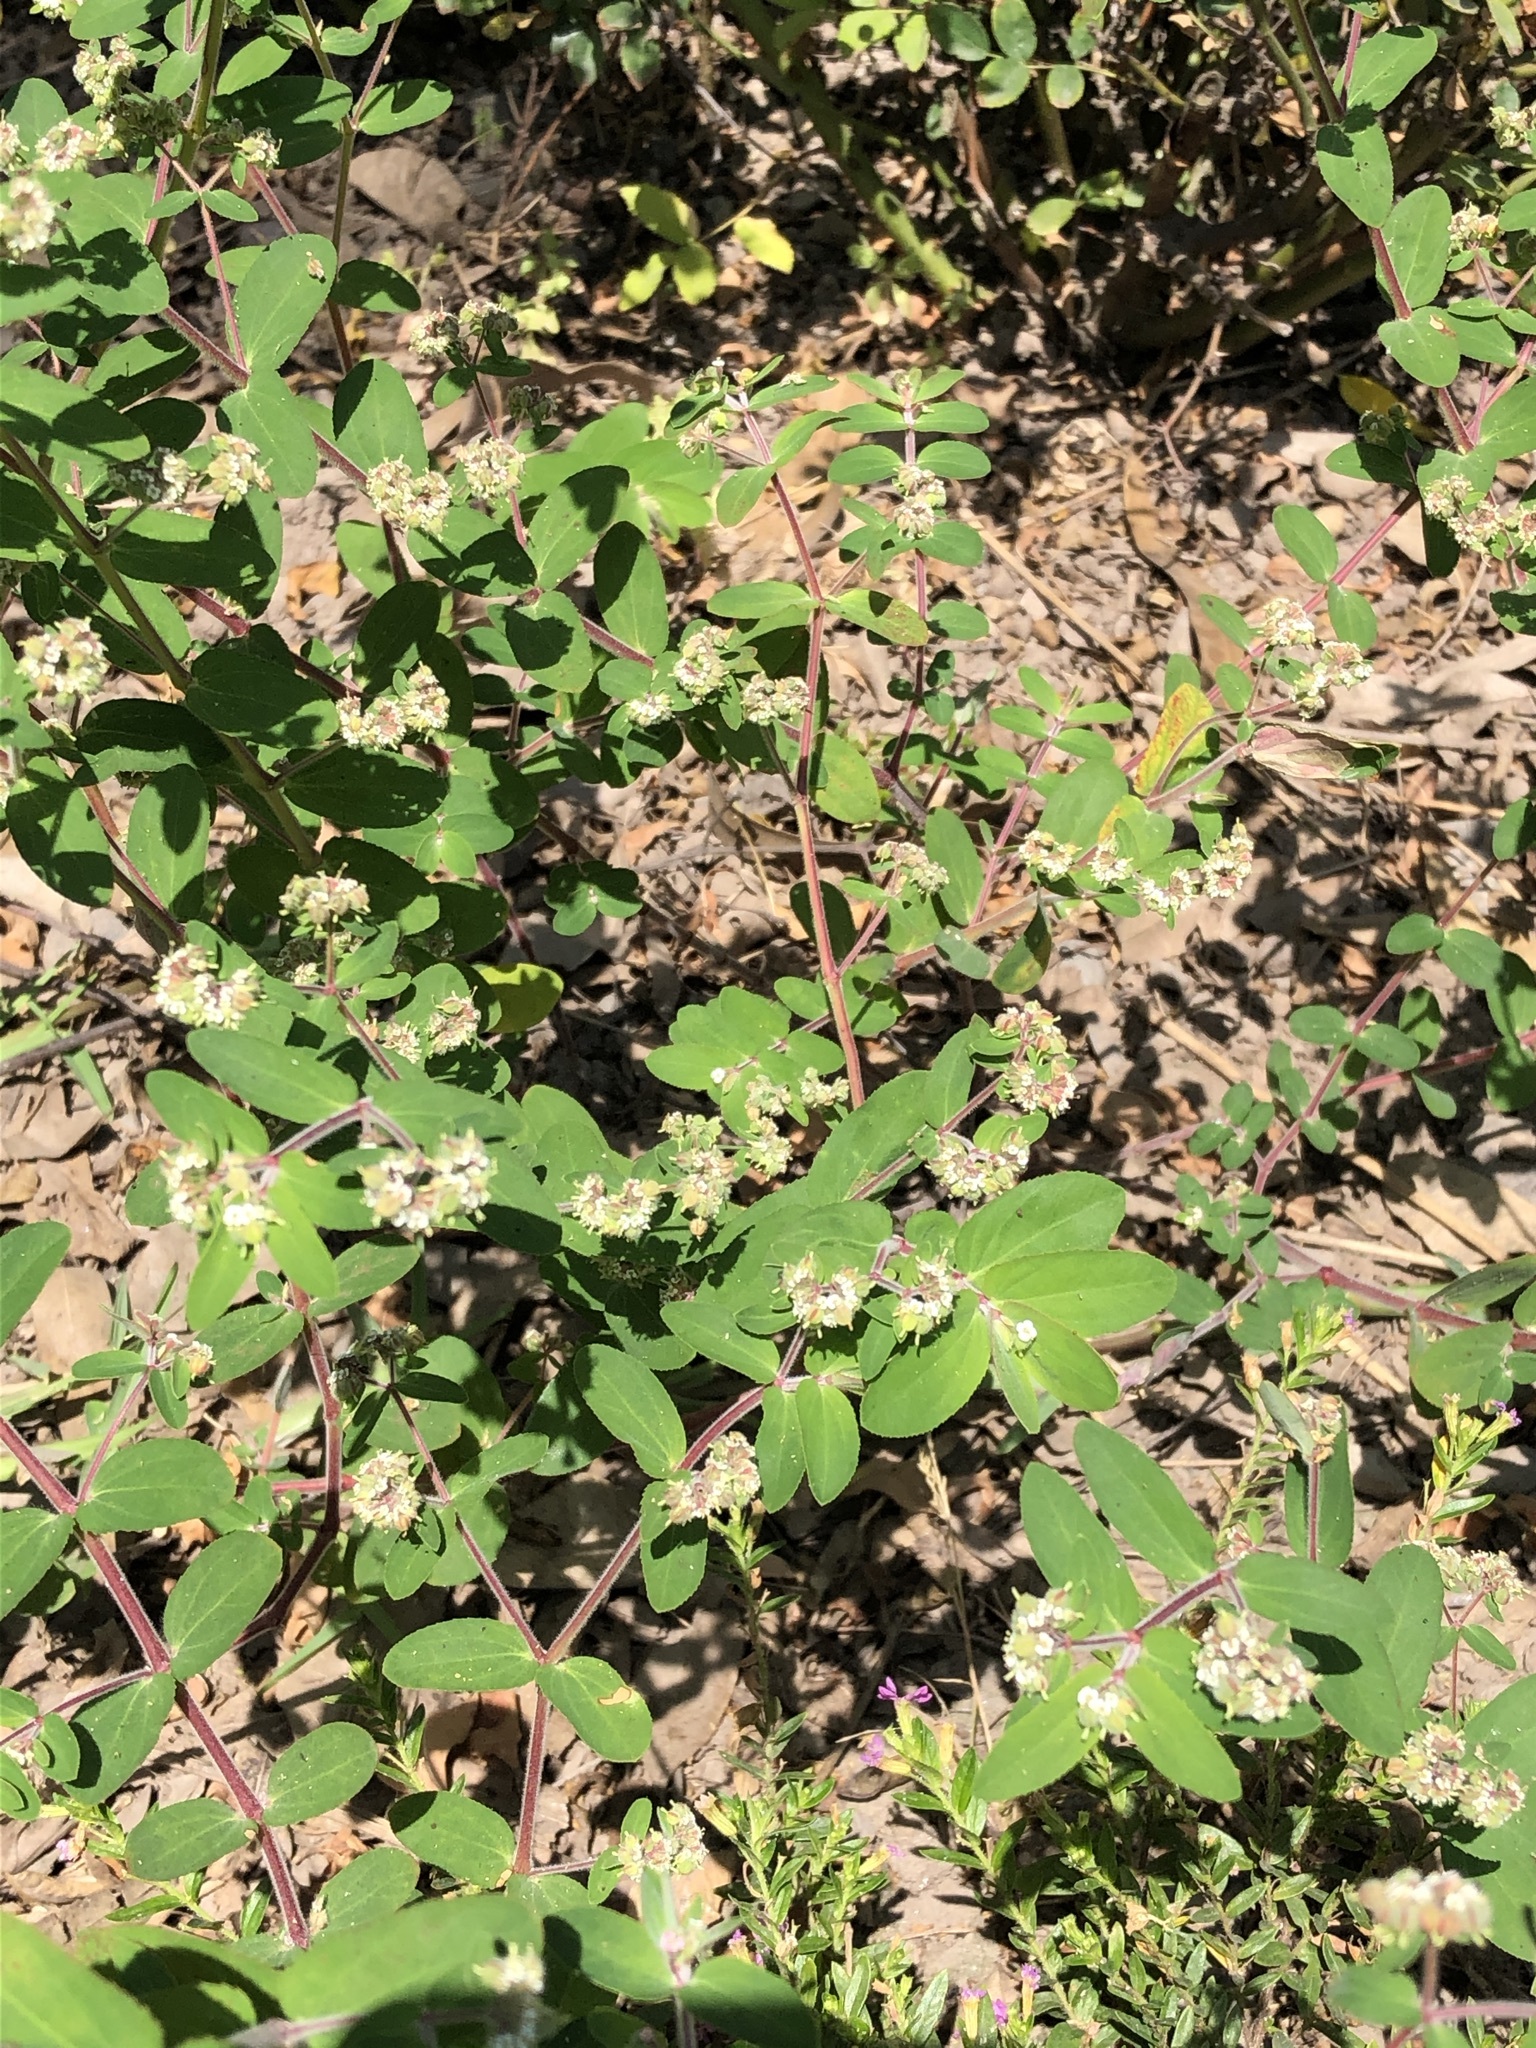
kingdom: Plantae
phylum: Tracheophyta
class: Magnoliopsida
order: Malpighiales
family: Euphorbiaceae
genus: Euphorbia
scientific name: Euphorbia lasiocarpa
